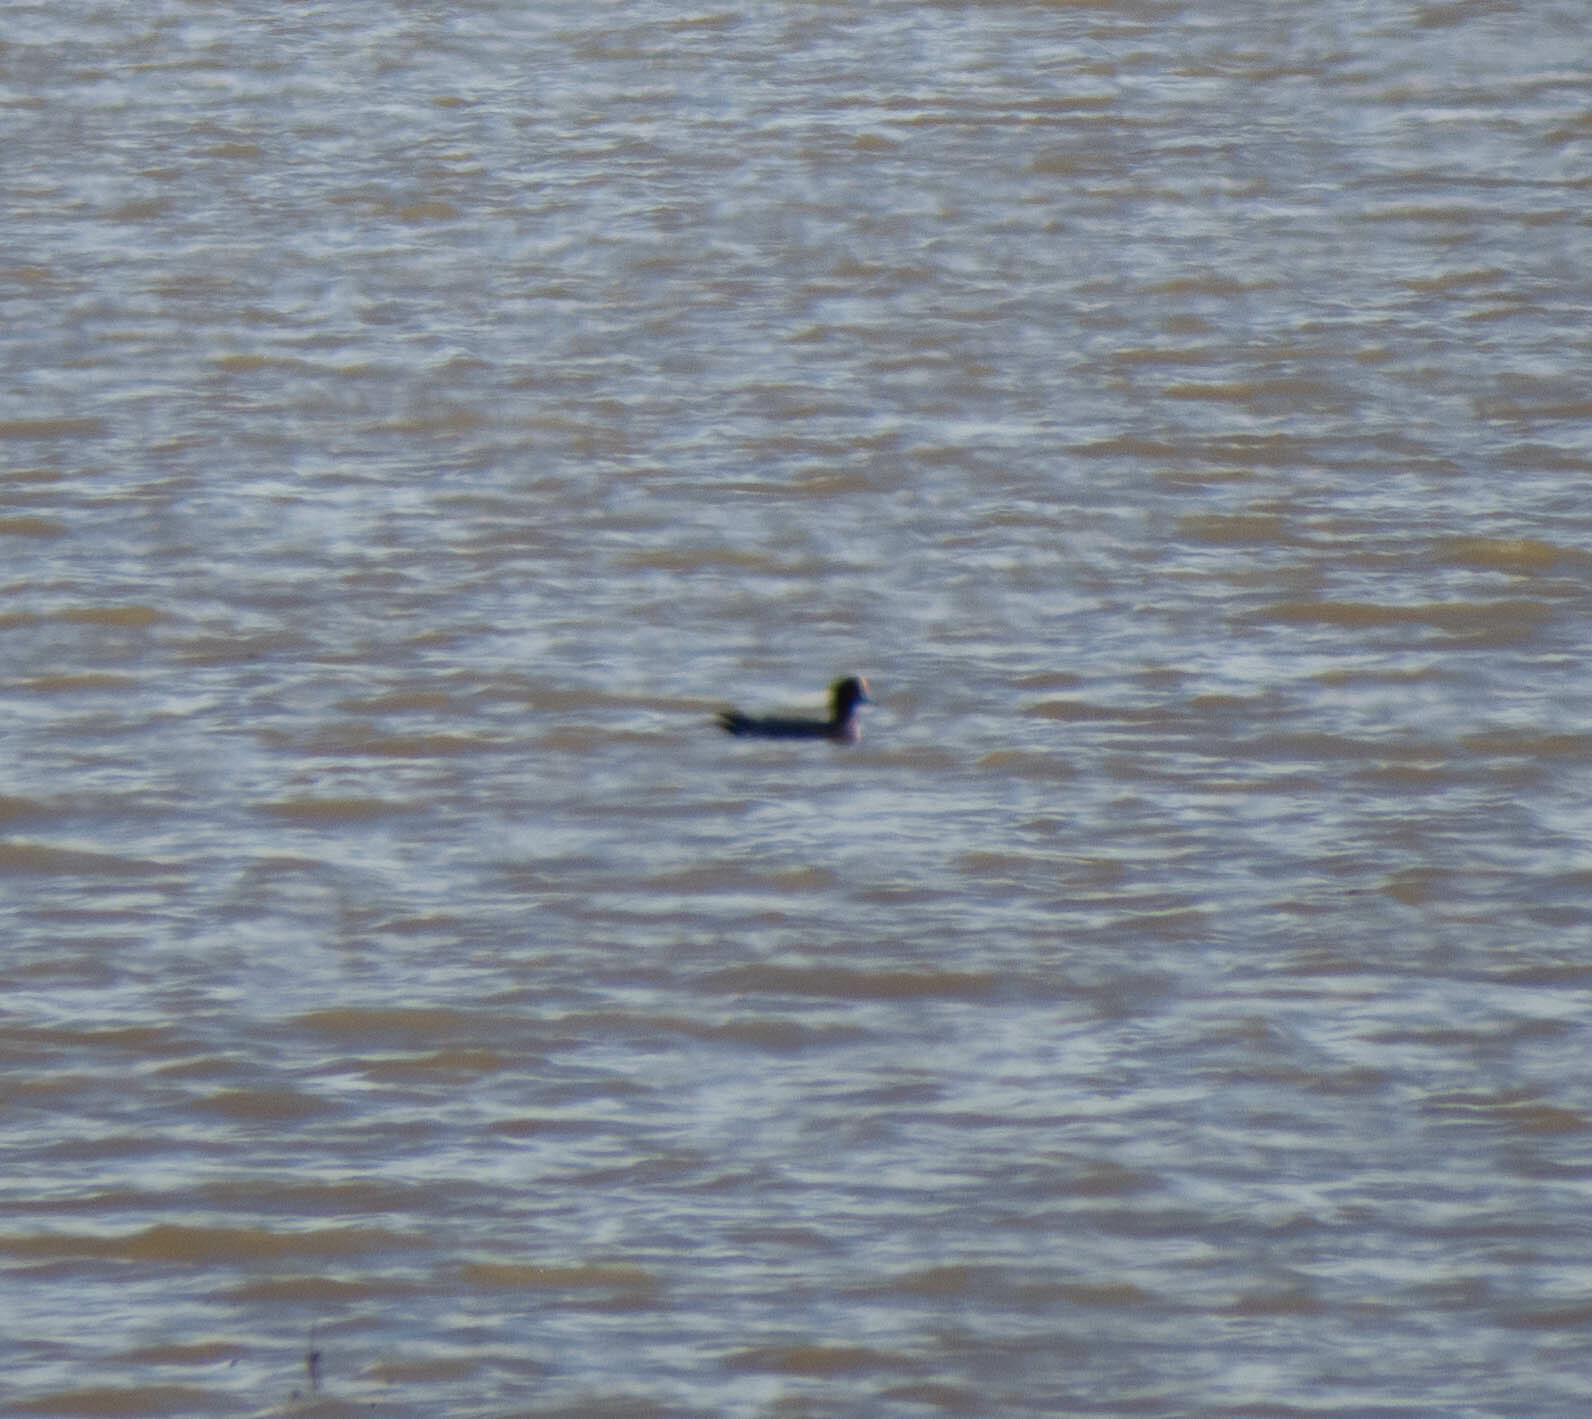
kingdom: Animalia
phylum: Chordata
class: Aves
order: Anseriformes
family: Anatidae
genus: Mareca
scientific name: Mareca penelope
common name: Eurasian wigeon
